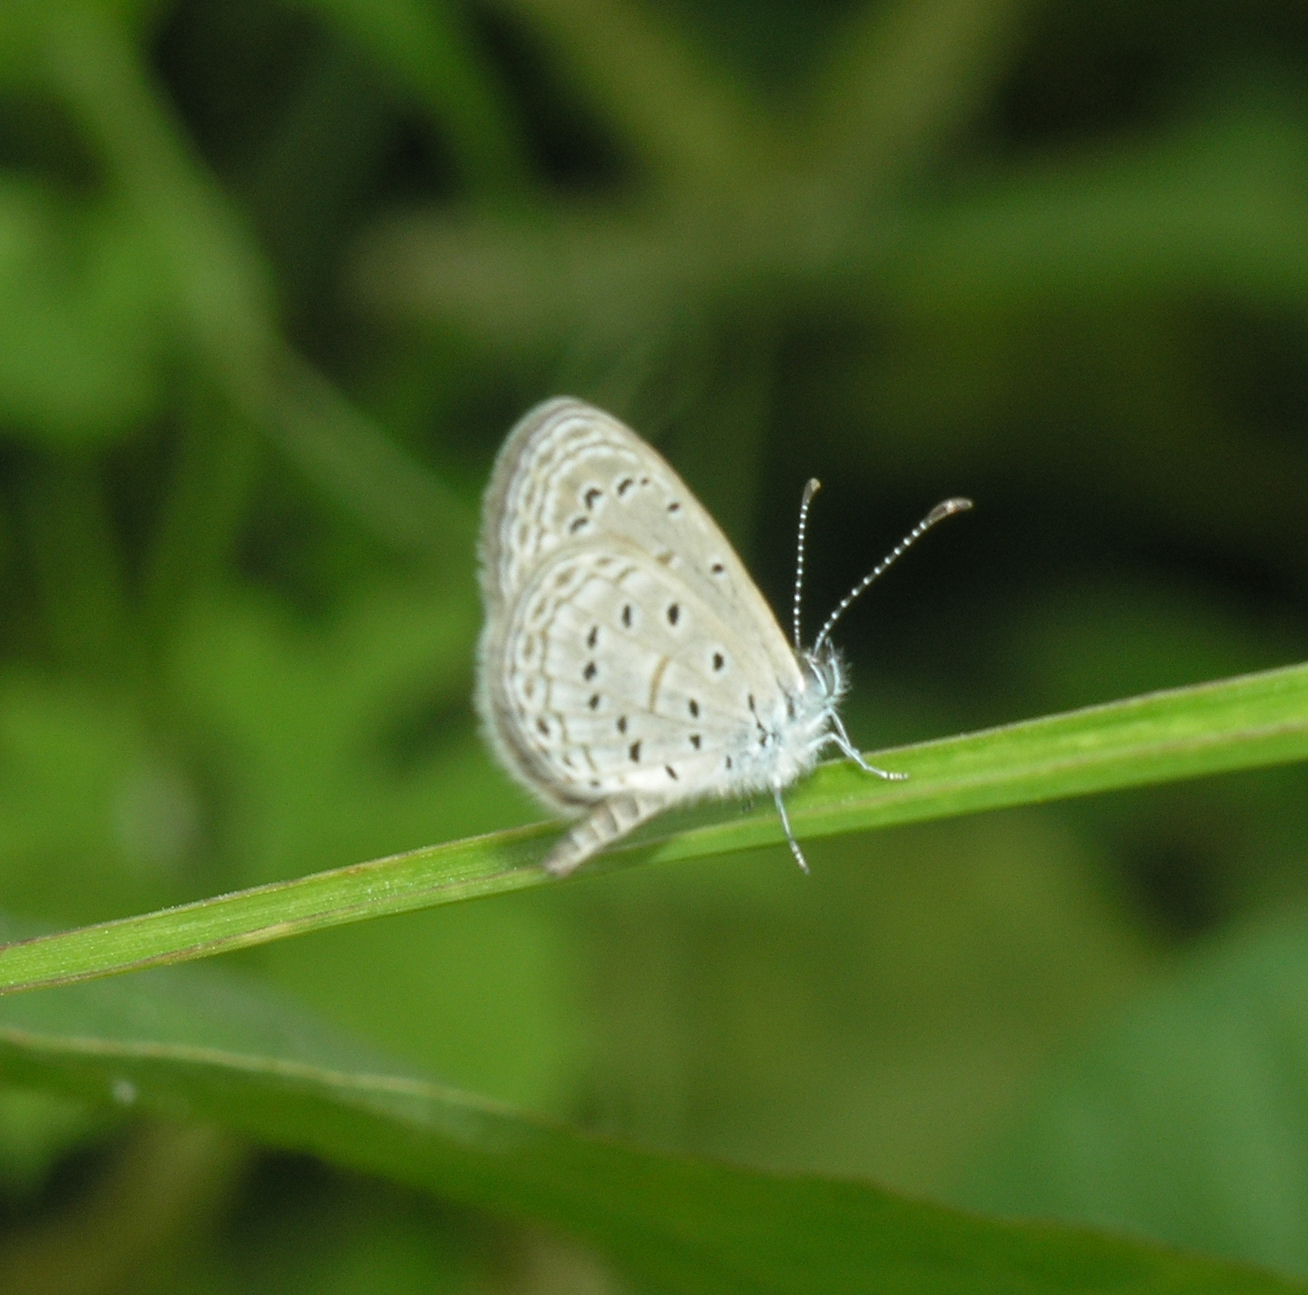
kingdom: Animalia
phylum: Arthropoda
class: Insecta
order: Lepidoptera
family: Lycaenidae
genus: Zizula
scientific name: Zizula hylax
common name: Gaika blue
